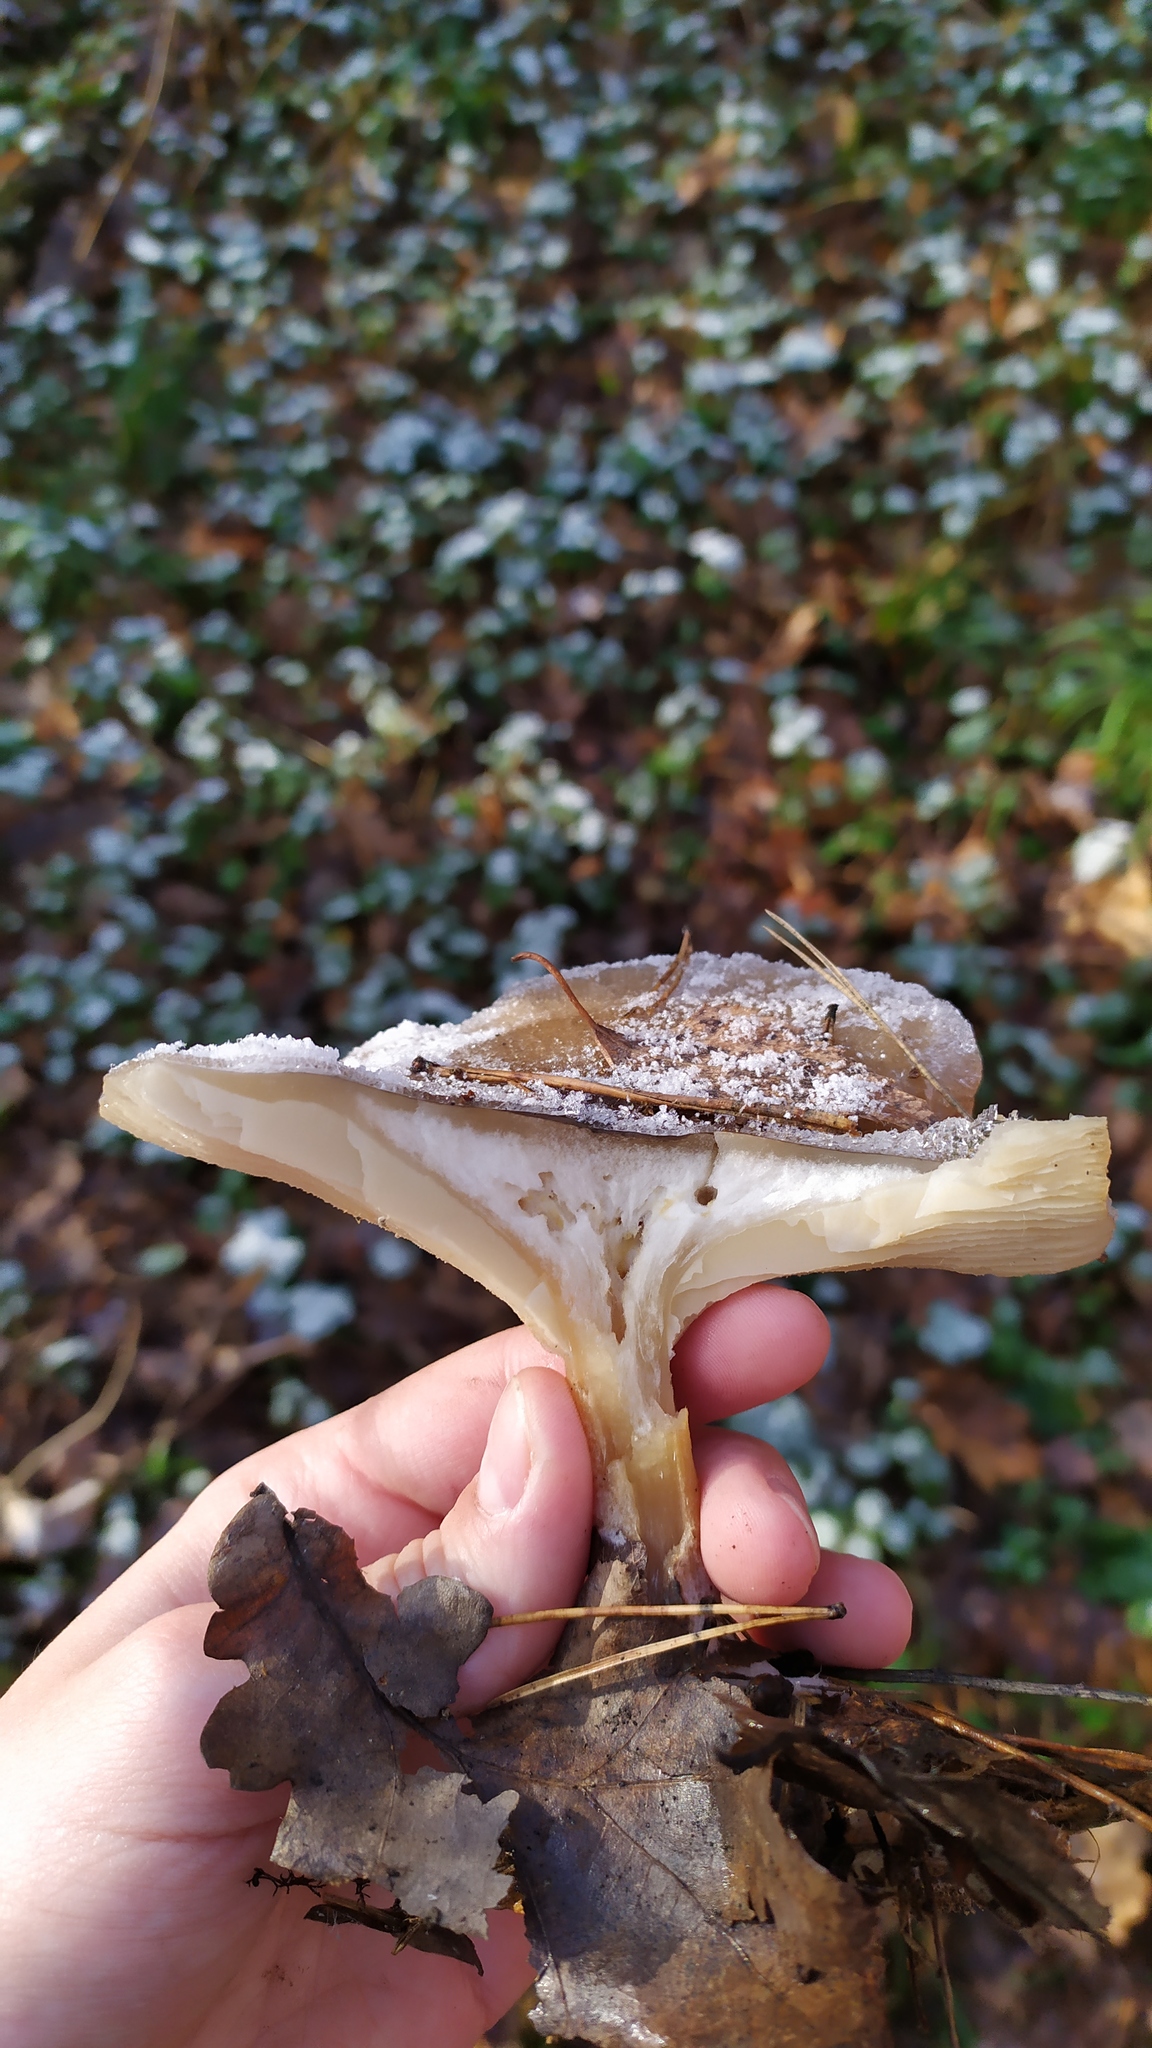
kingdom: Fungi
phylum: Basidiomycota
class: Agaricomycetes
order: Agaricales
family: Tricholomataceae
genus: Clitocybe
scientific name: Clitocybe nebularis
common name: Clouded agaric
